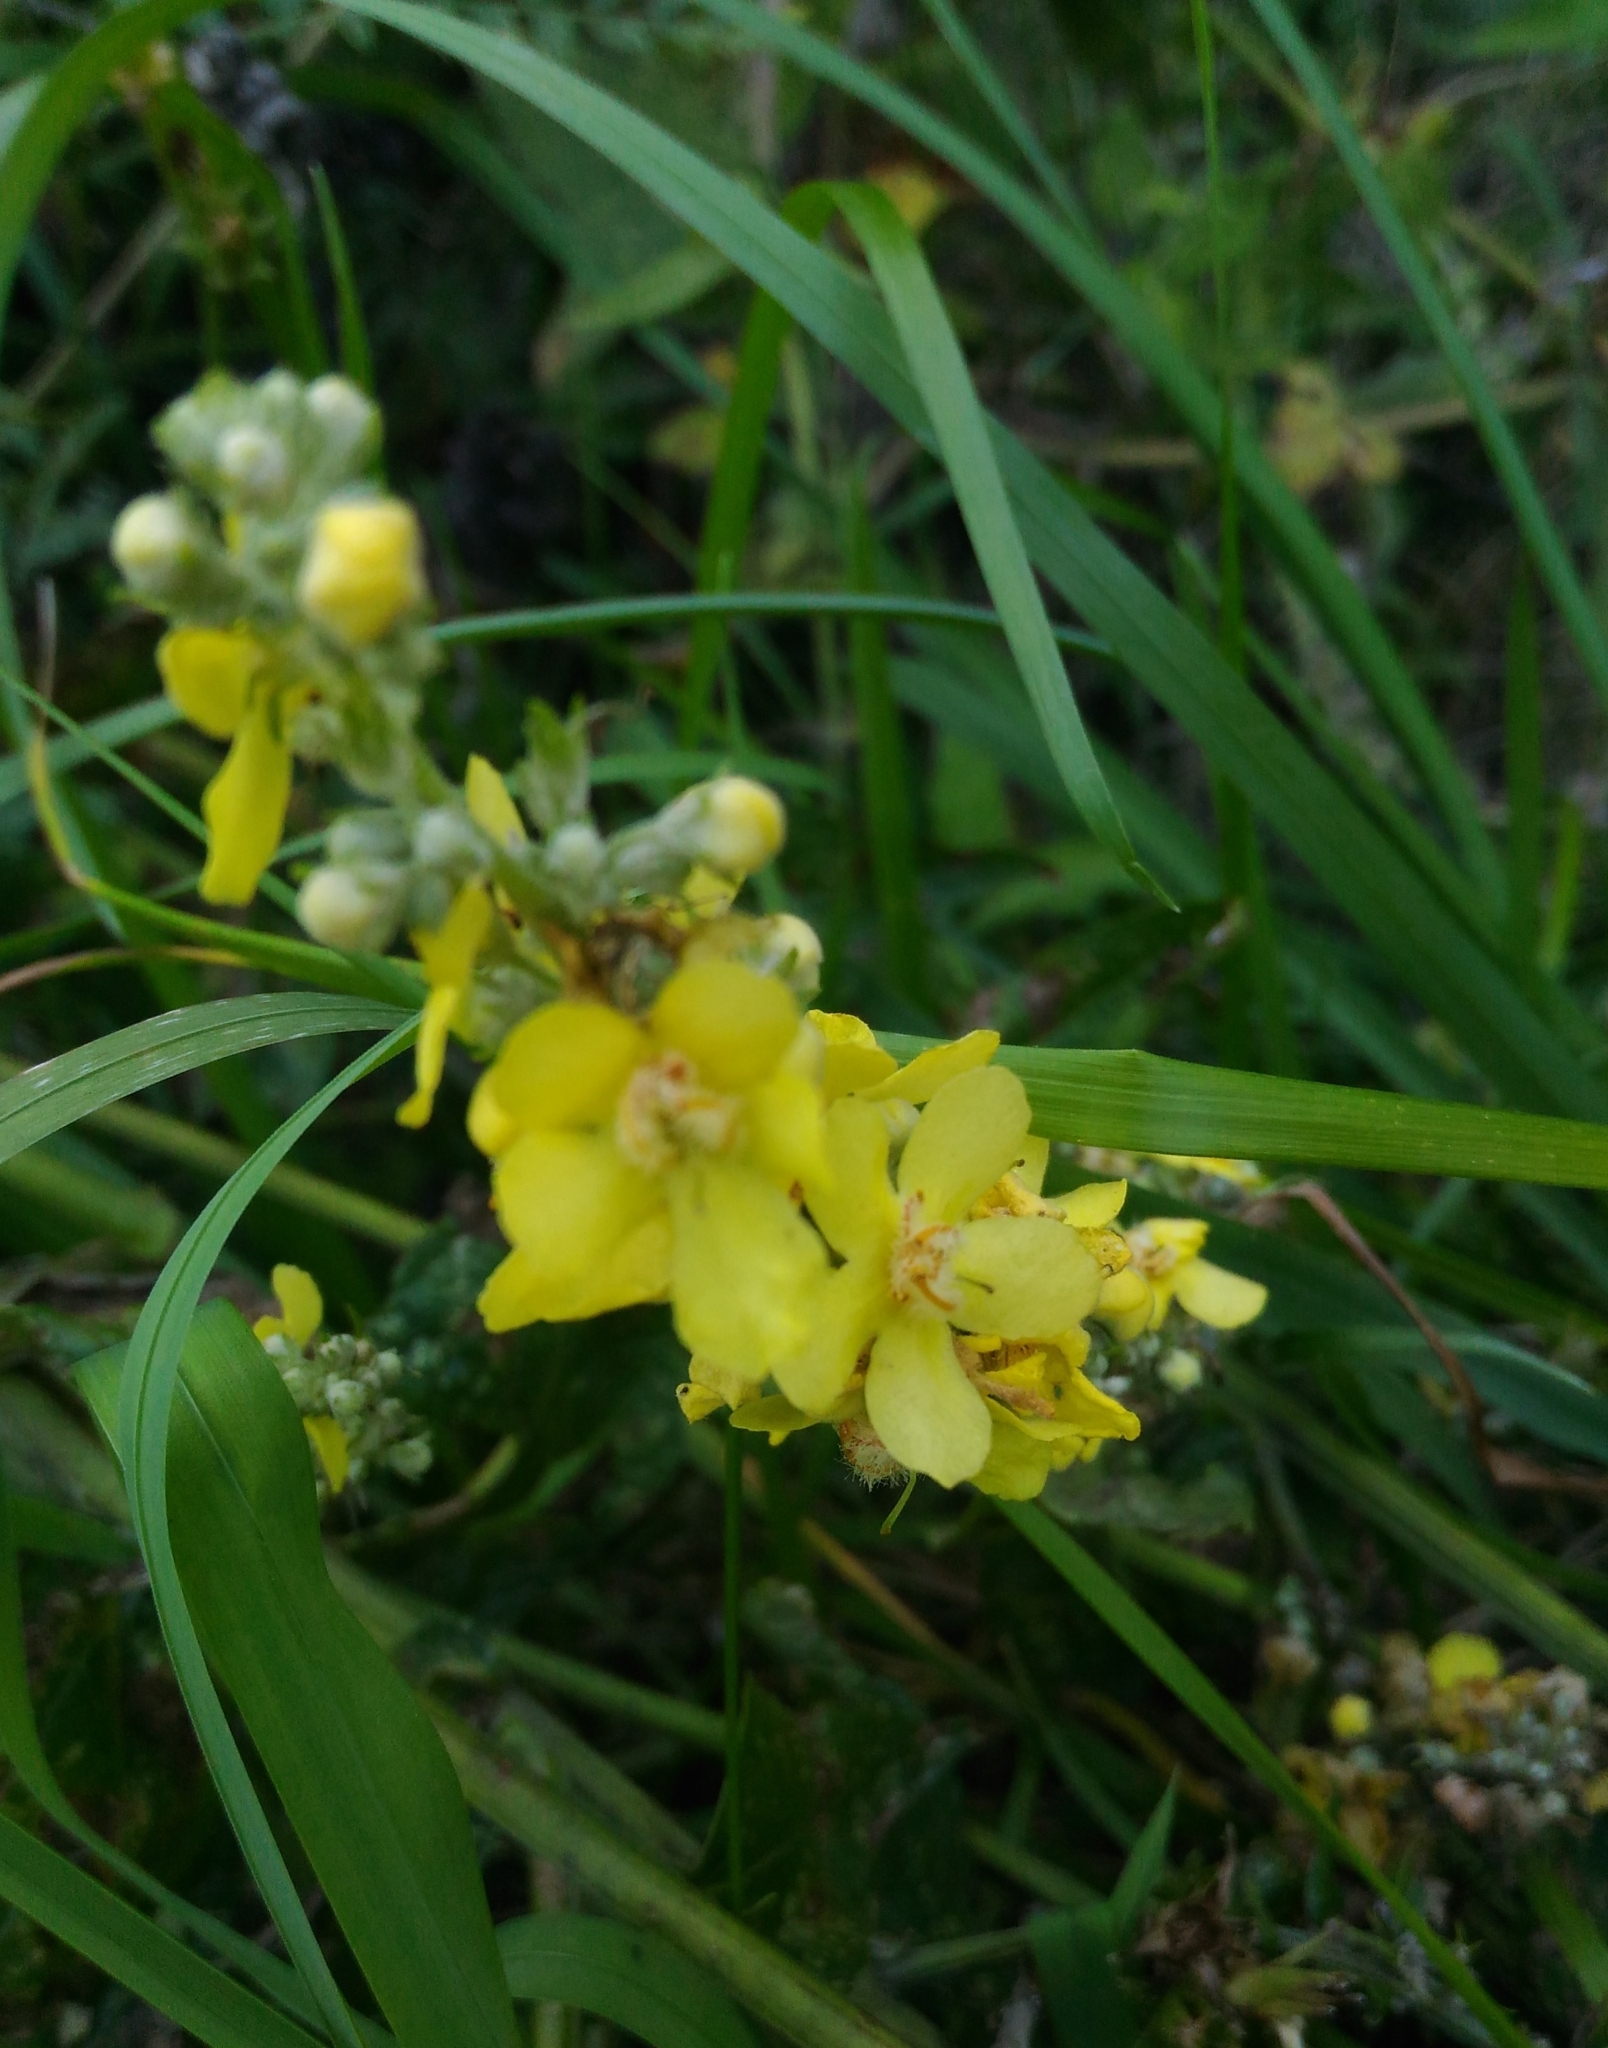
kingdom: Plantae
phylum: Tracheophyta
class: Magnoliopsida
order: Lamiales
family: Scrophulariaceae
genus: Verbascum
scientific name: Verbascum lychnitis
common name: White mullein
